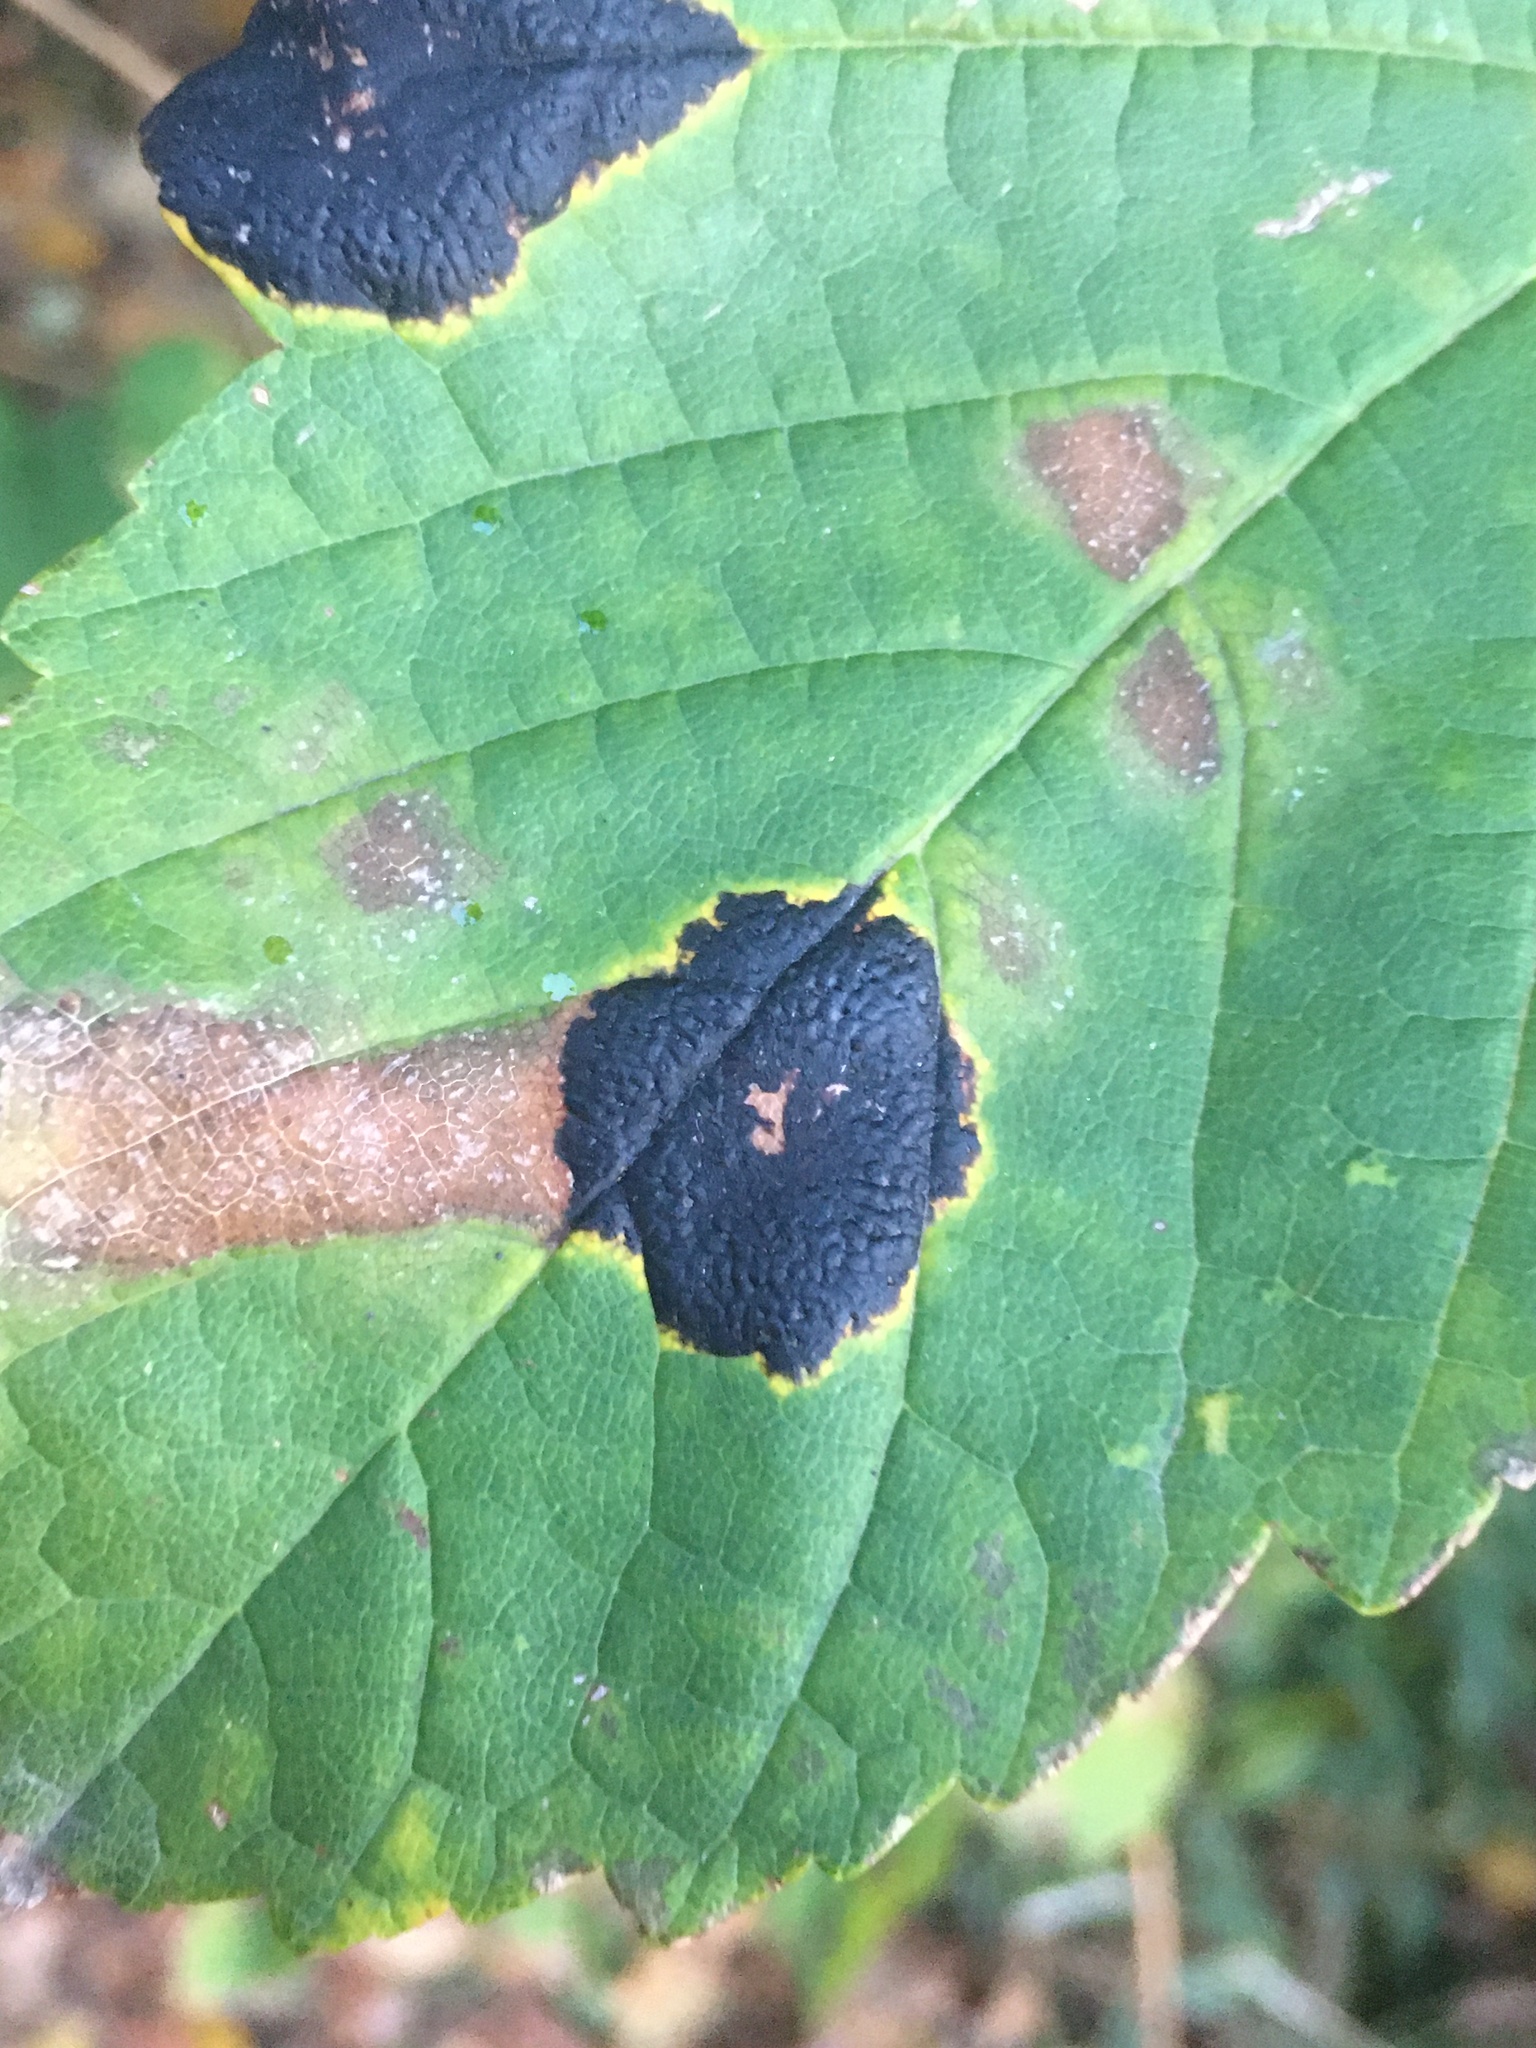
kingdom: Fungi
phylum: Ascomycota
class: Leotiomycetes
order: Rhytismatales
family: Rhytismataceae
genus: Rhytisma
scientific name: Rhytisma acerinum
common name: European tar spot
